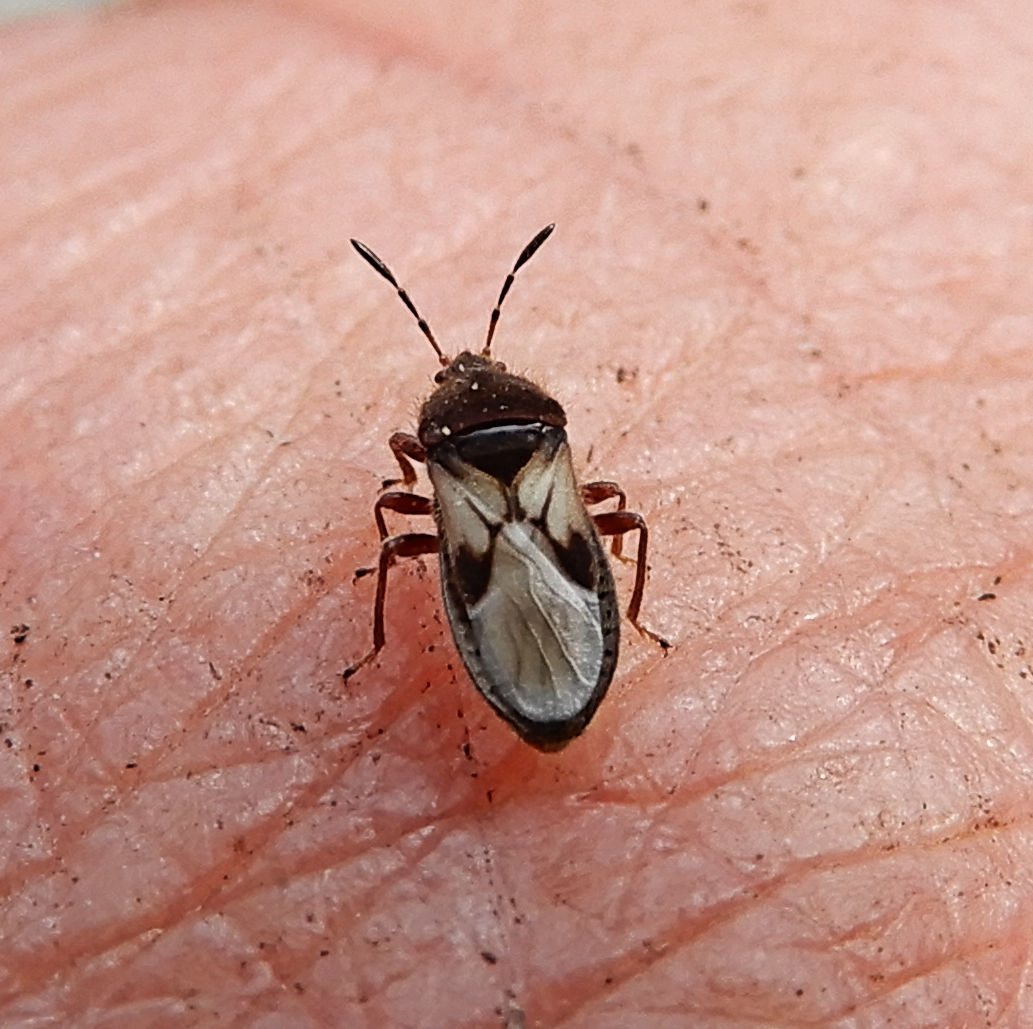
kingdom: Animalia
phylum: Arthropoda
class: Insecta
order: Hemiptera
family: Blissidae
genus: Blissus
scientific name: Blissus leucopterus
